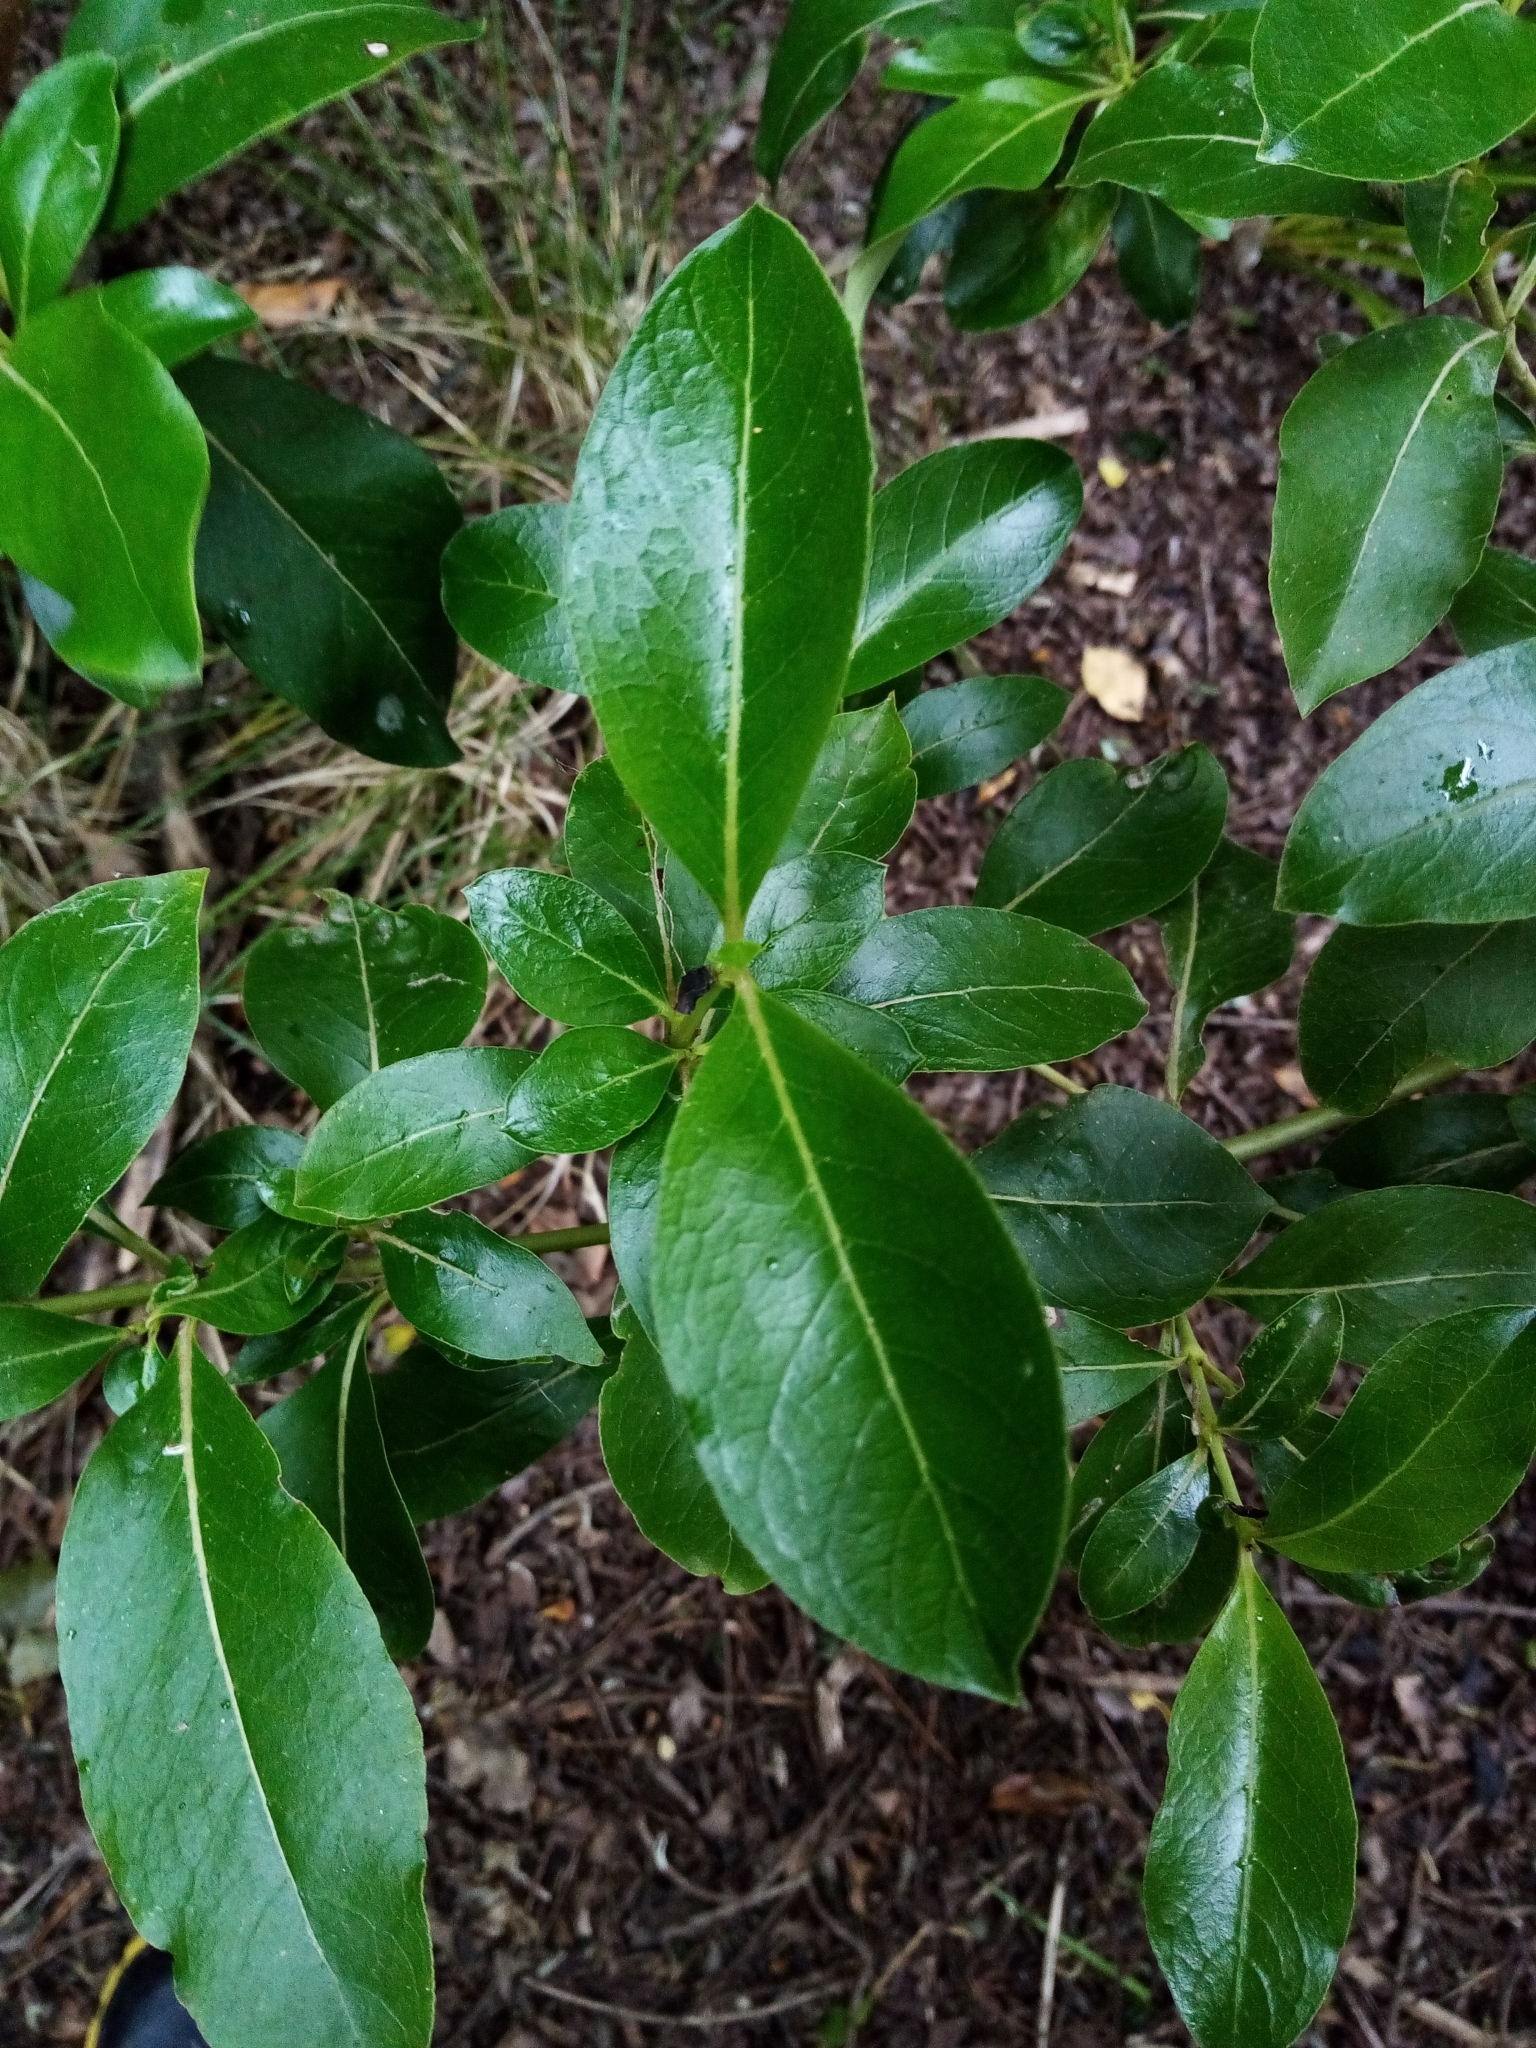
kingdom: Plantae
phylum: Tracheophyta
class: Magnoliopsida
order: Gentianales
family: Rubiaceae
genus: Coprosma
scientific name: Coprosma lucida
